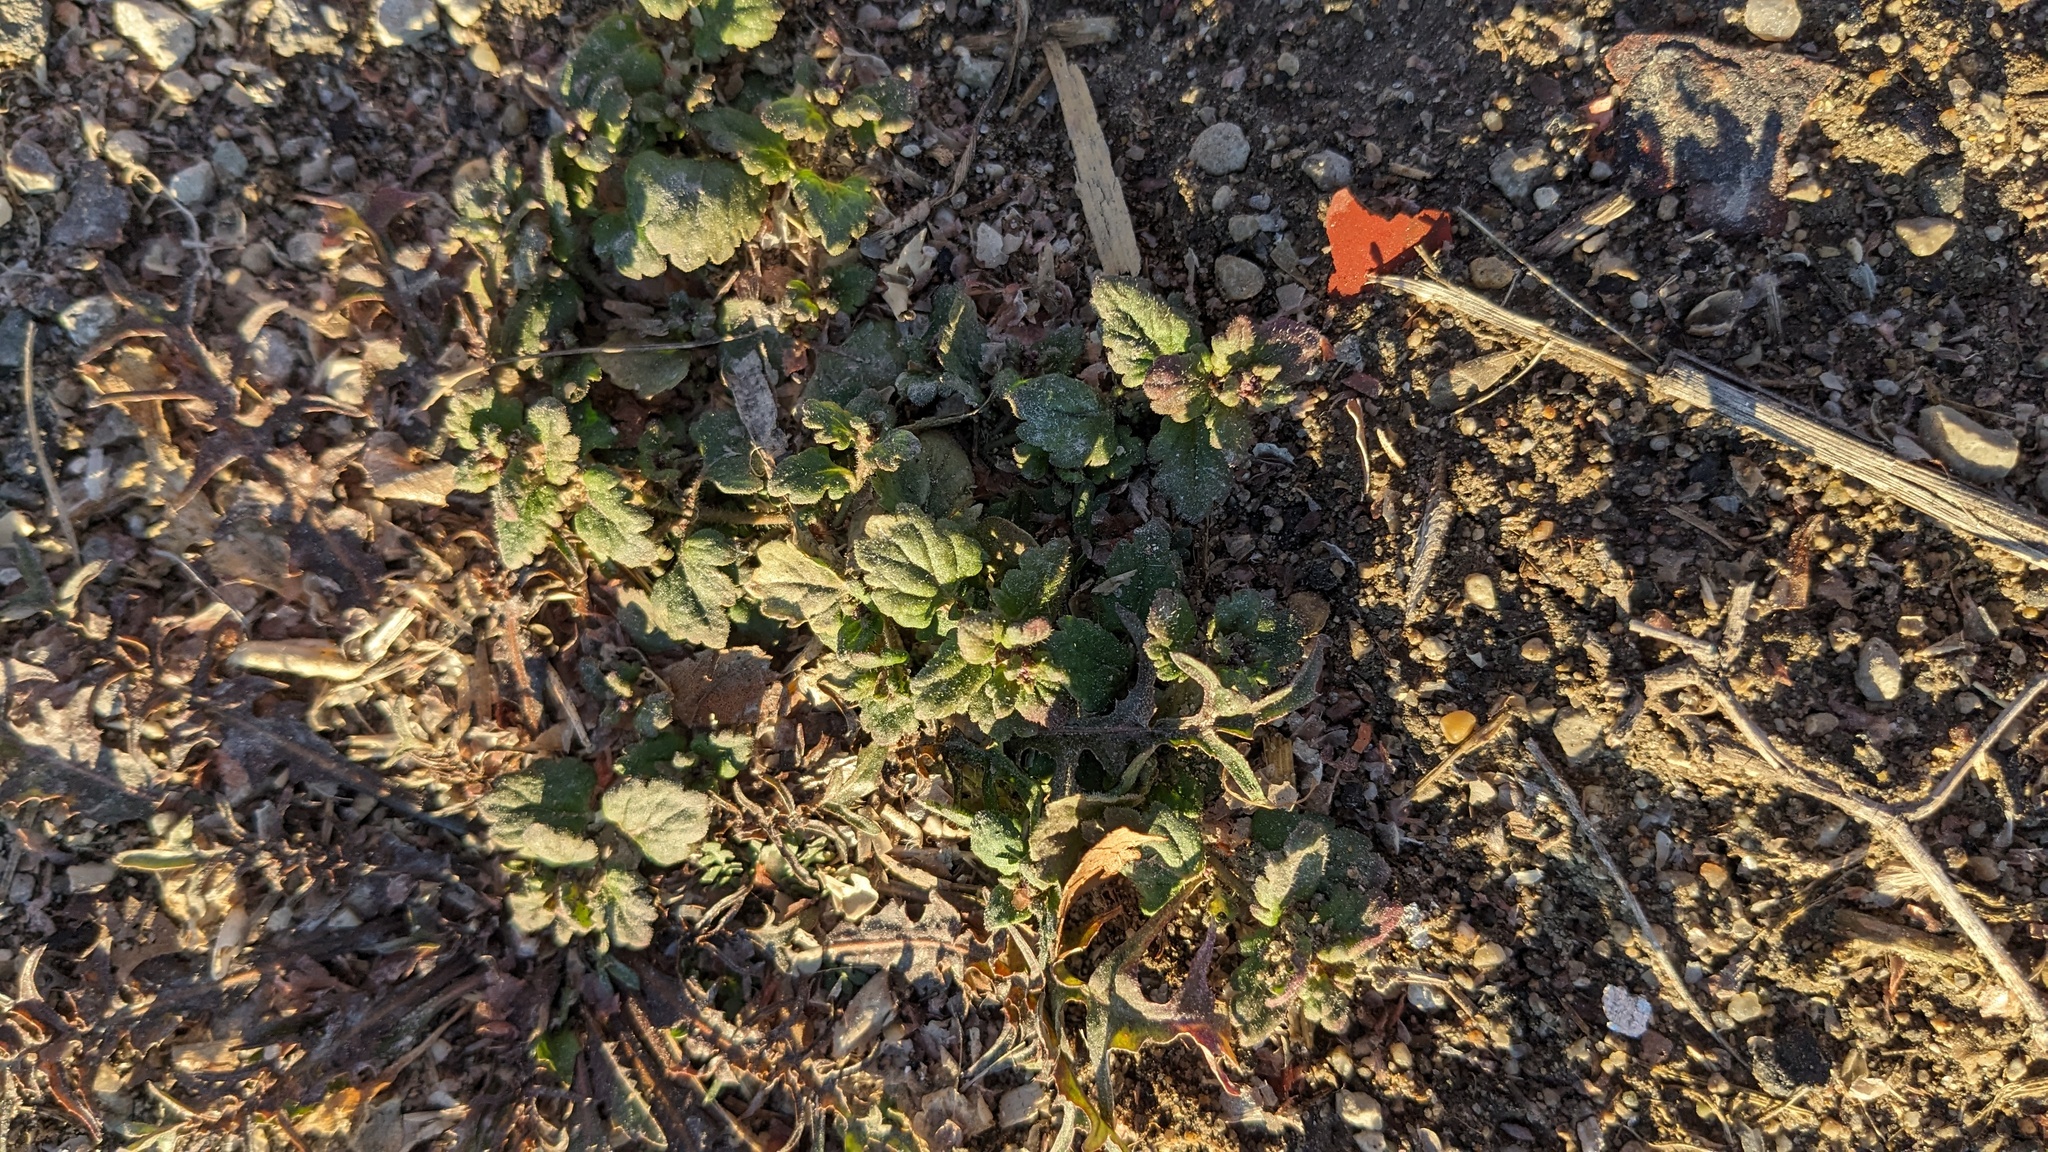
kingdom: Plantae
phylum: Tracheophyta
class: Magnoliopsida
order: Lamiales
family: Lamiaceae
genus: Glechoma
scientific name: Glechoma hederacea
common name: Ground ivy
